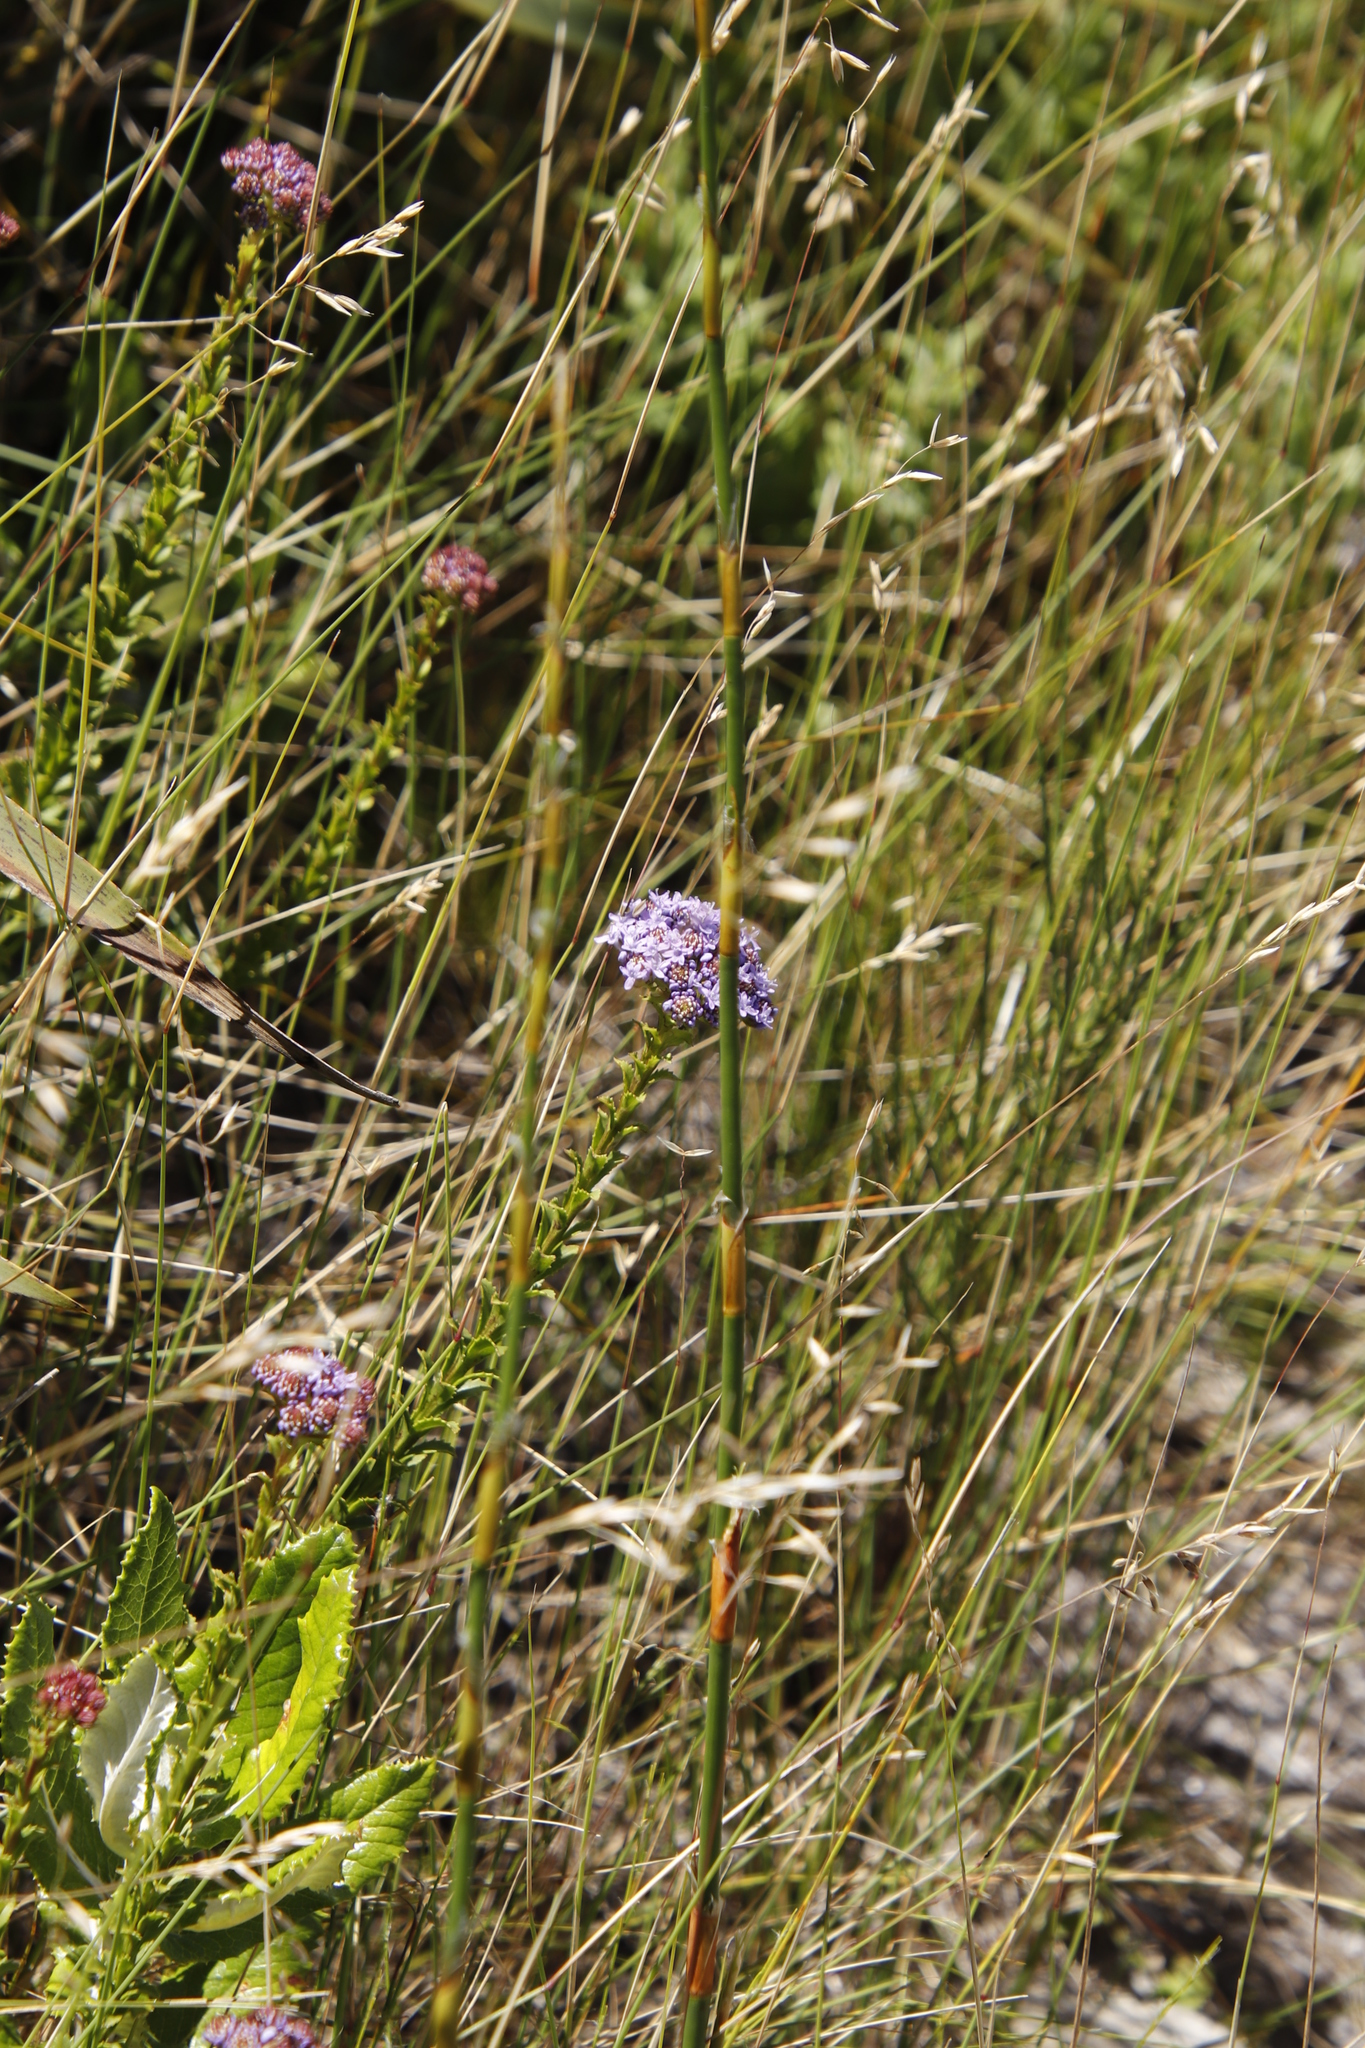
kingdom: Plantae
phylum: Tracheophyta
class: Magnoliopsida
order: Lamiales
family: Scrophulariaceae
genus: Pseudoselago
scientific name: Pseudoselago serrata
